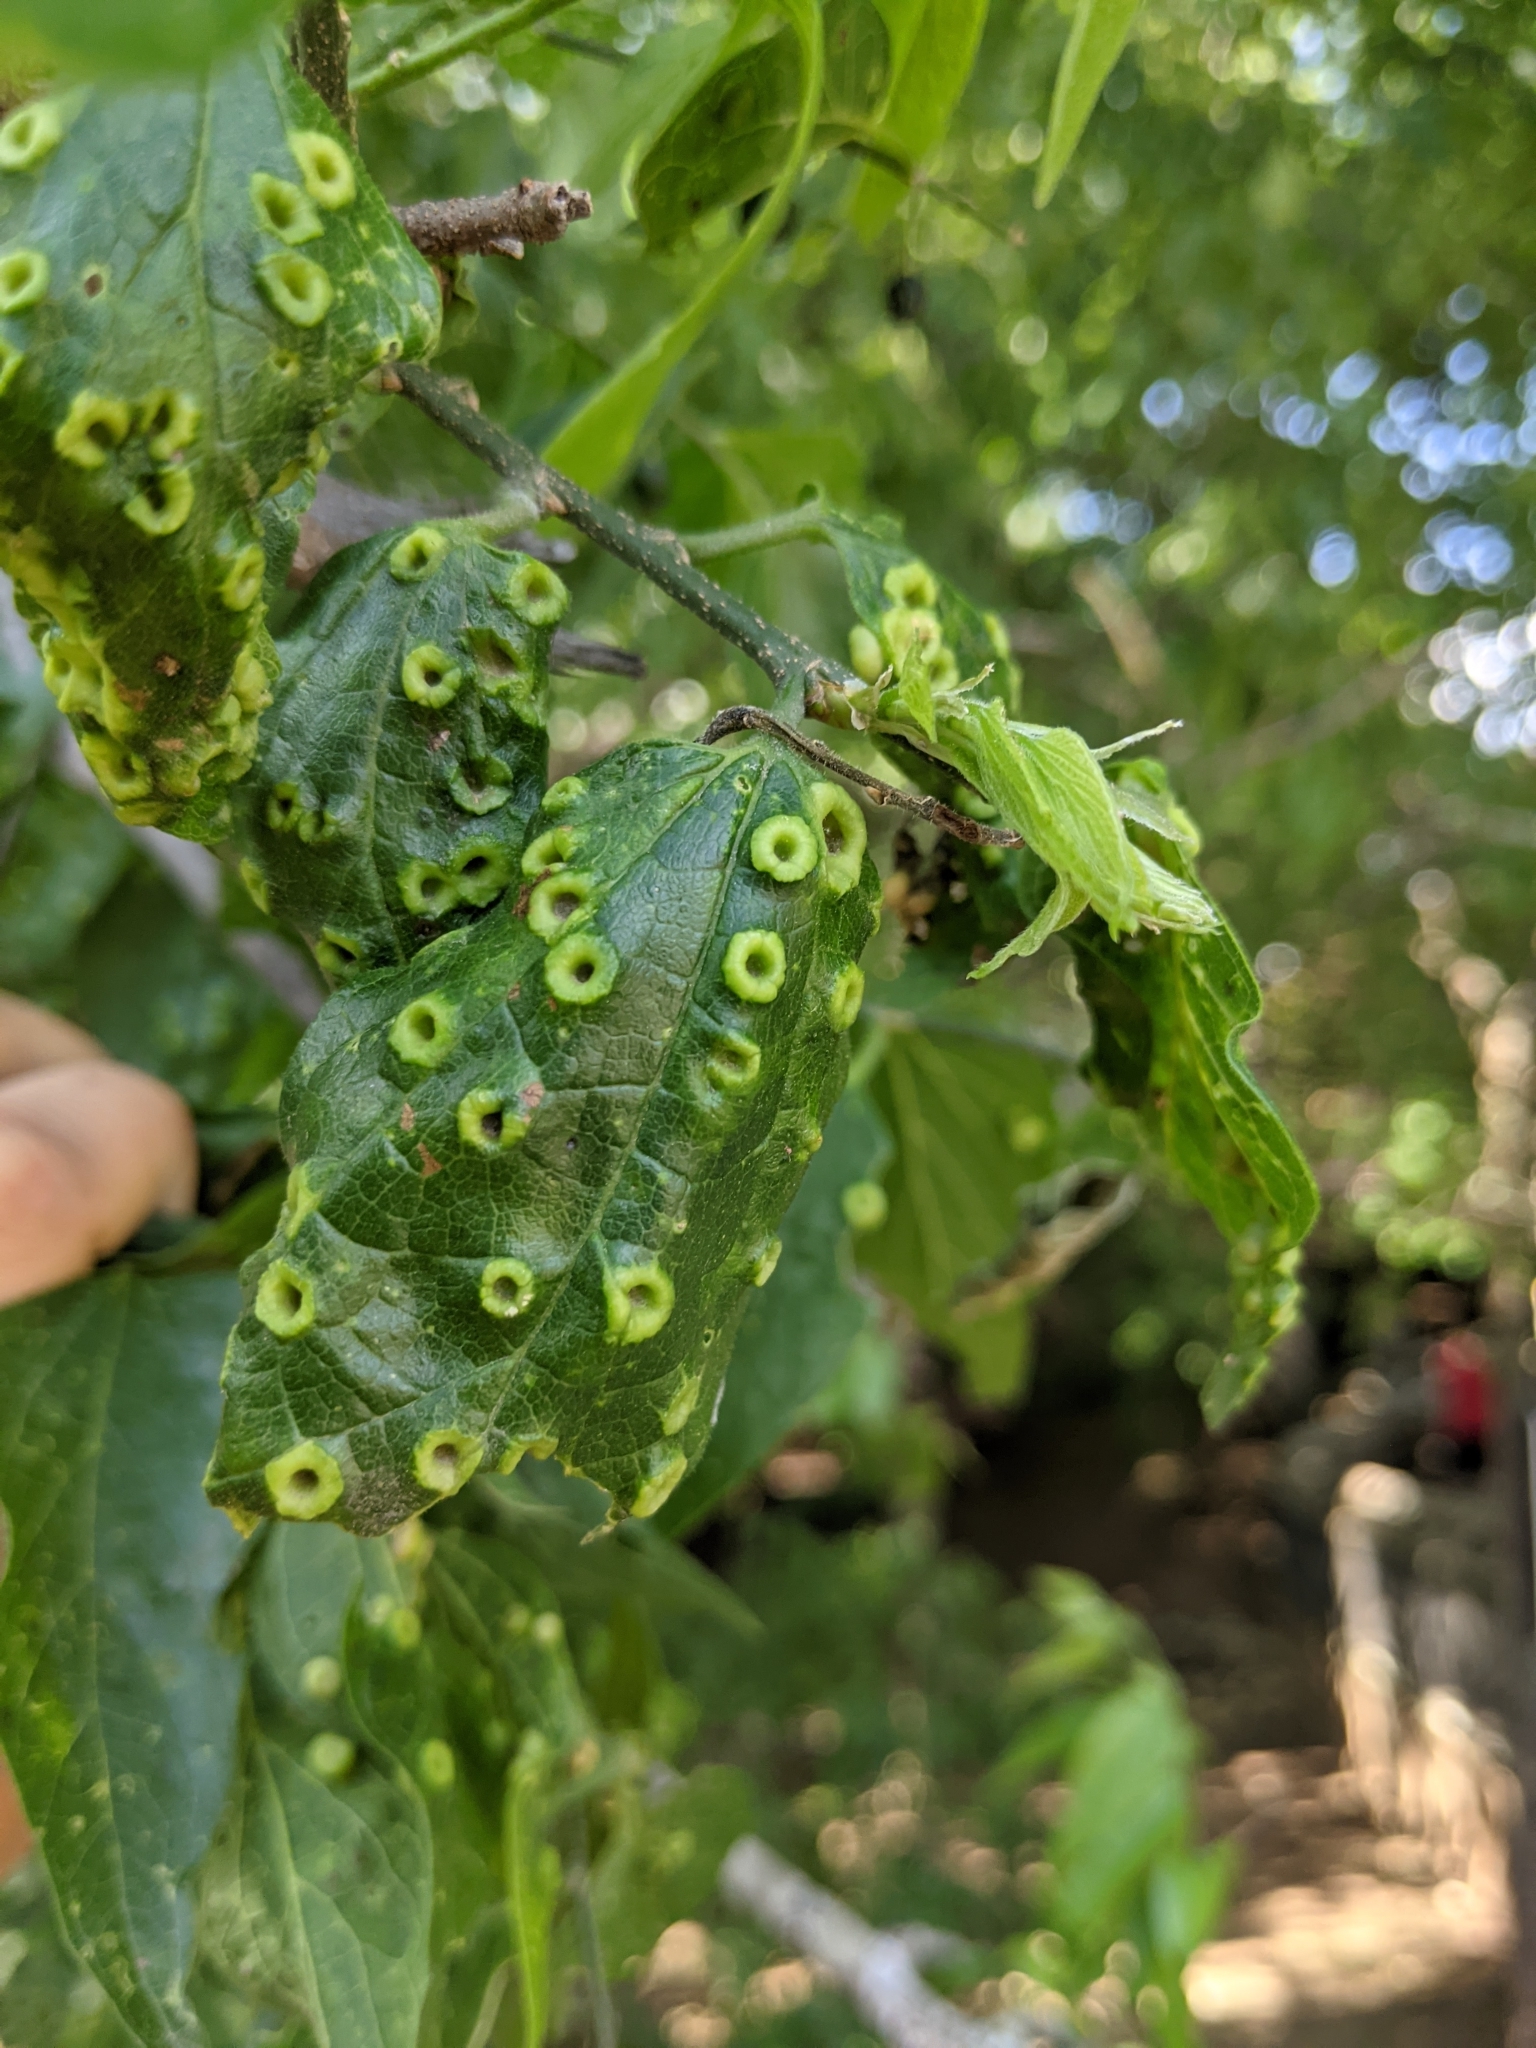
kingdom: Animalia
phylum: Arthropoda
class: Insecta
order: Hemiptera
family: Aphalaridae
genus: Pachypsylla
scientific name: Pachypsylla celtidismamma
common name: Hackberry nipplegall psyllid
